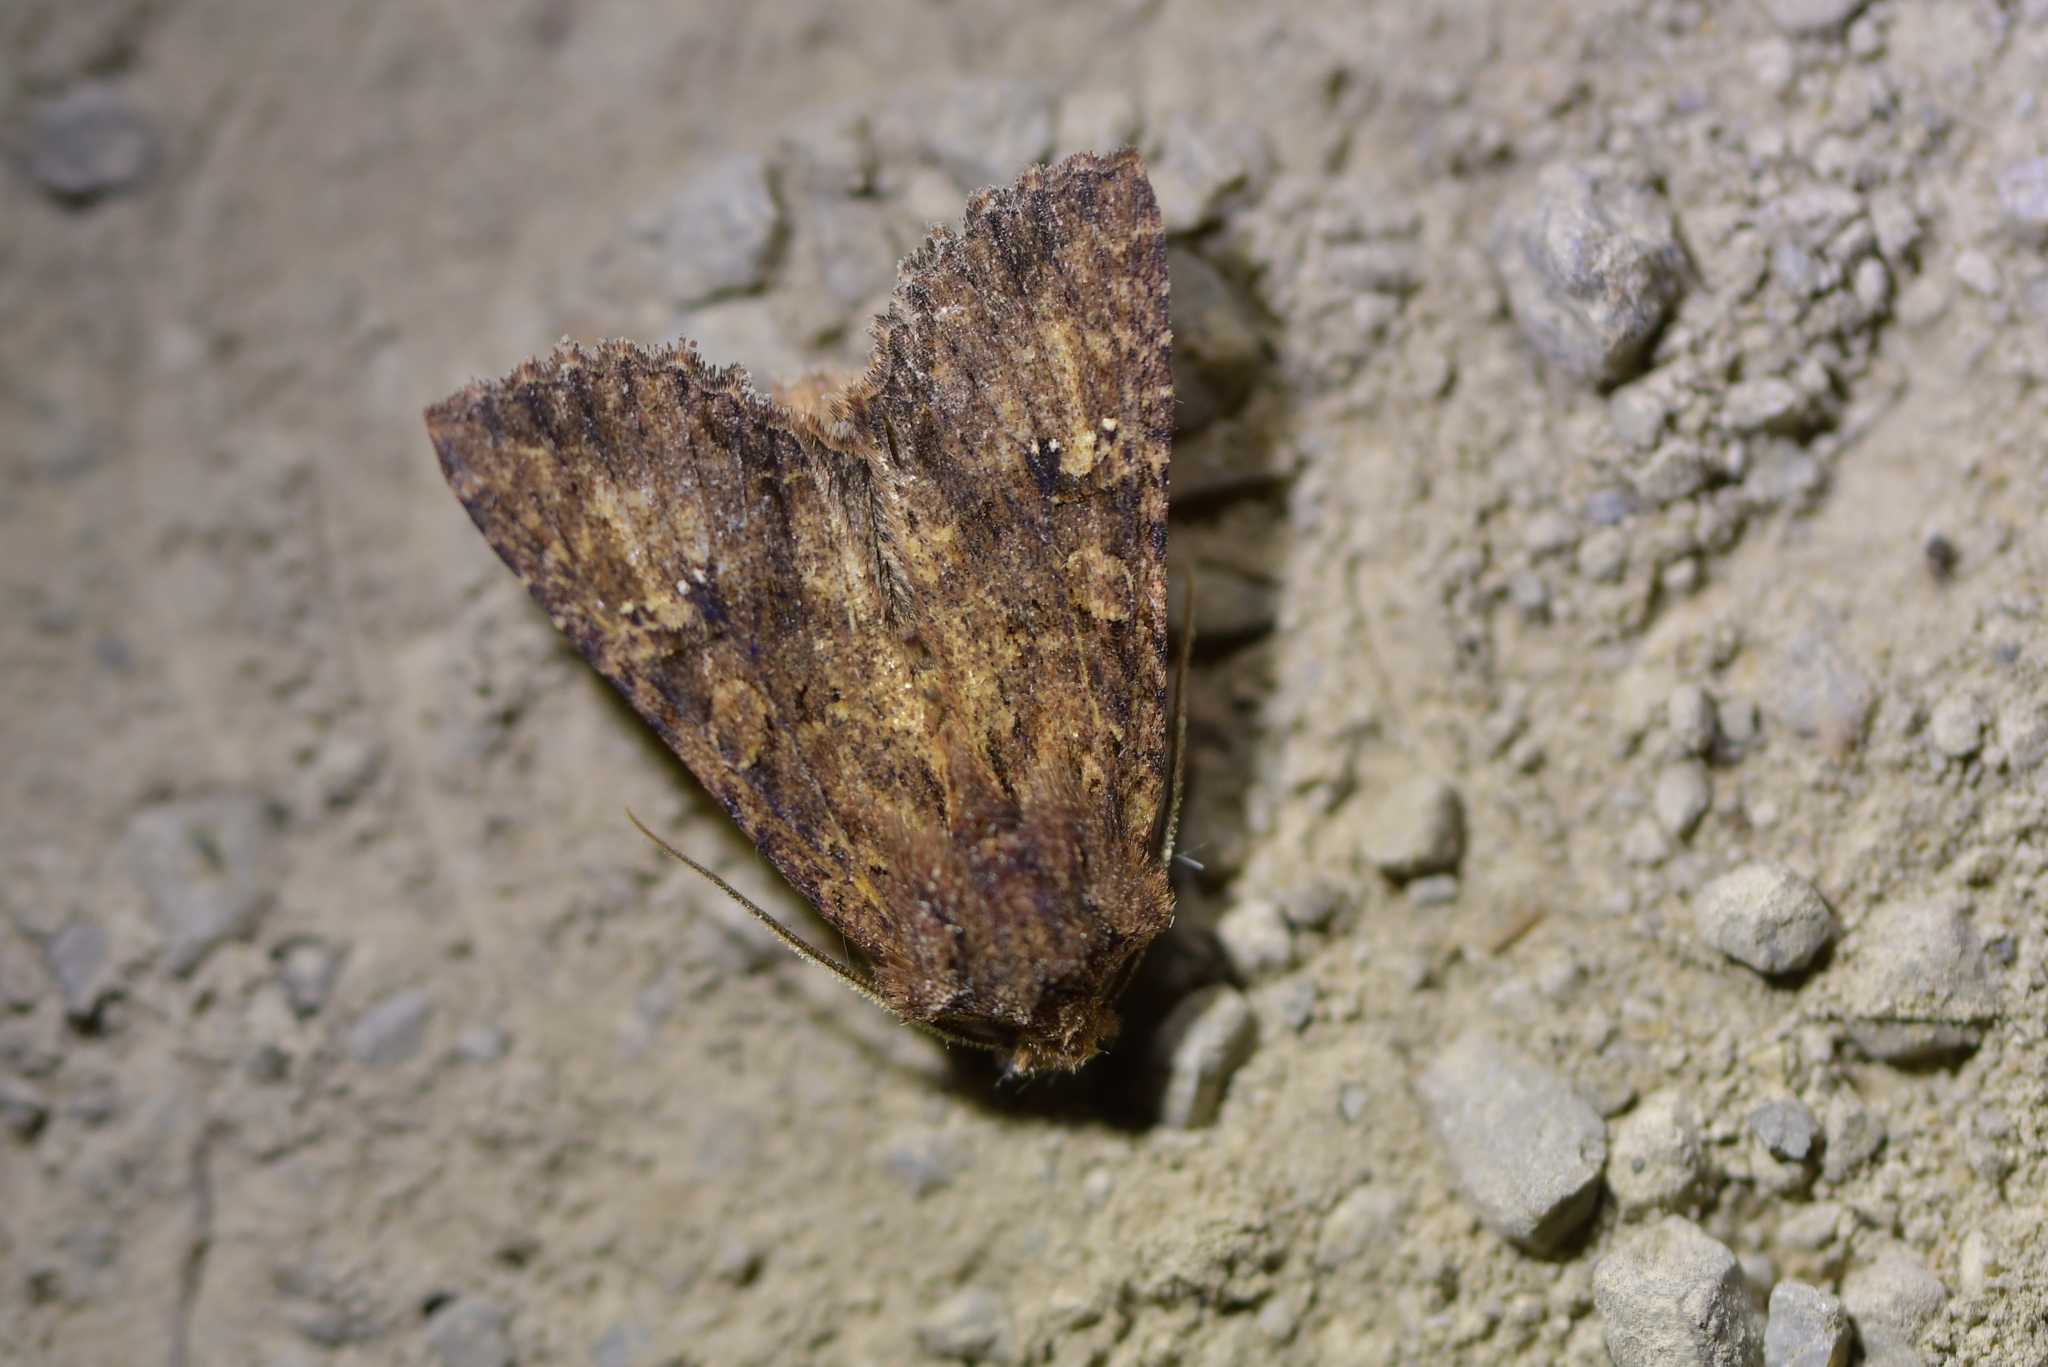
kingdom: Animalia
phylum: Arthropoda
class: Insecta
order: Lepidoptera
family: Noctuidae
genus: Meterana
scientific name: Meterana ochthistis
